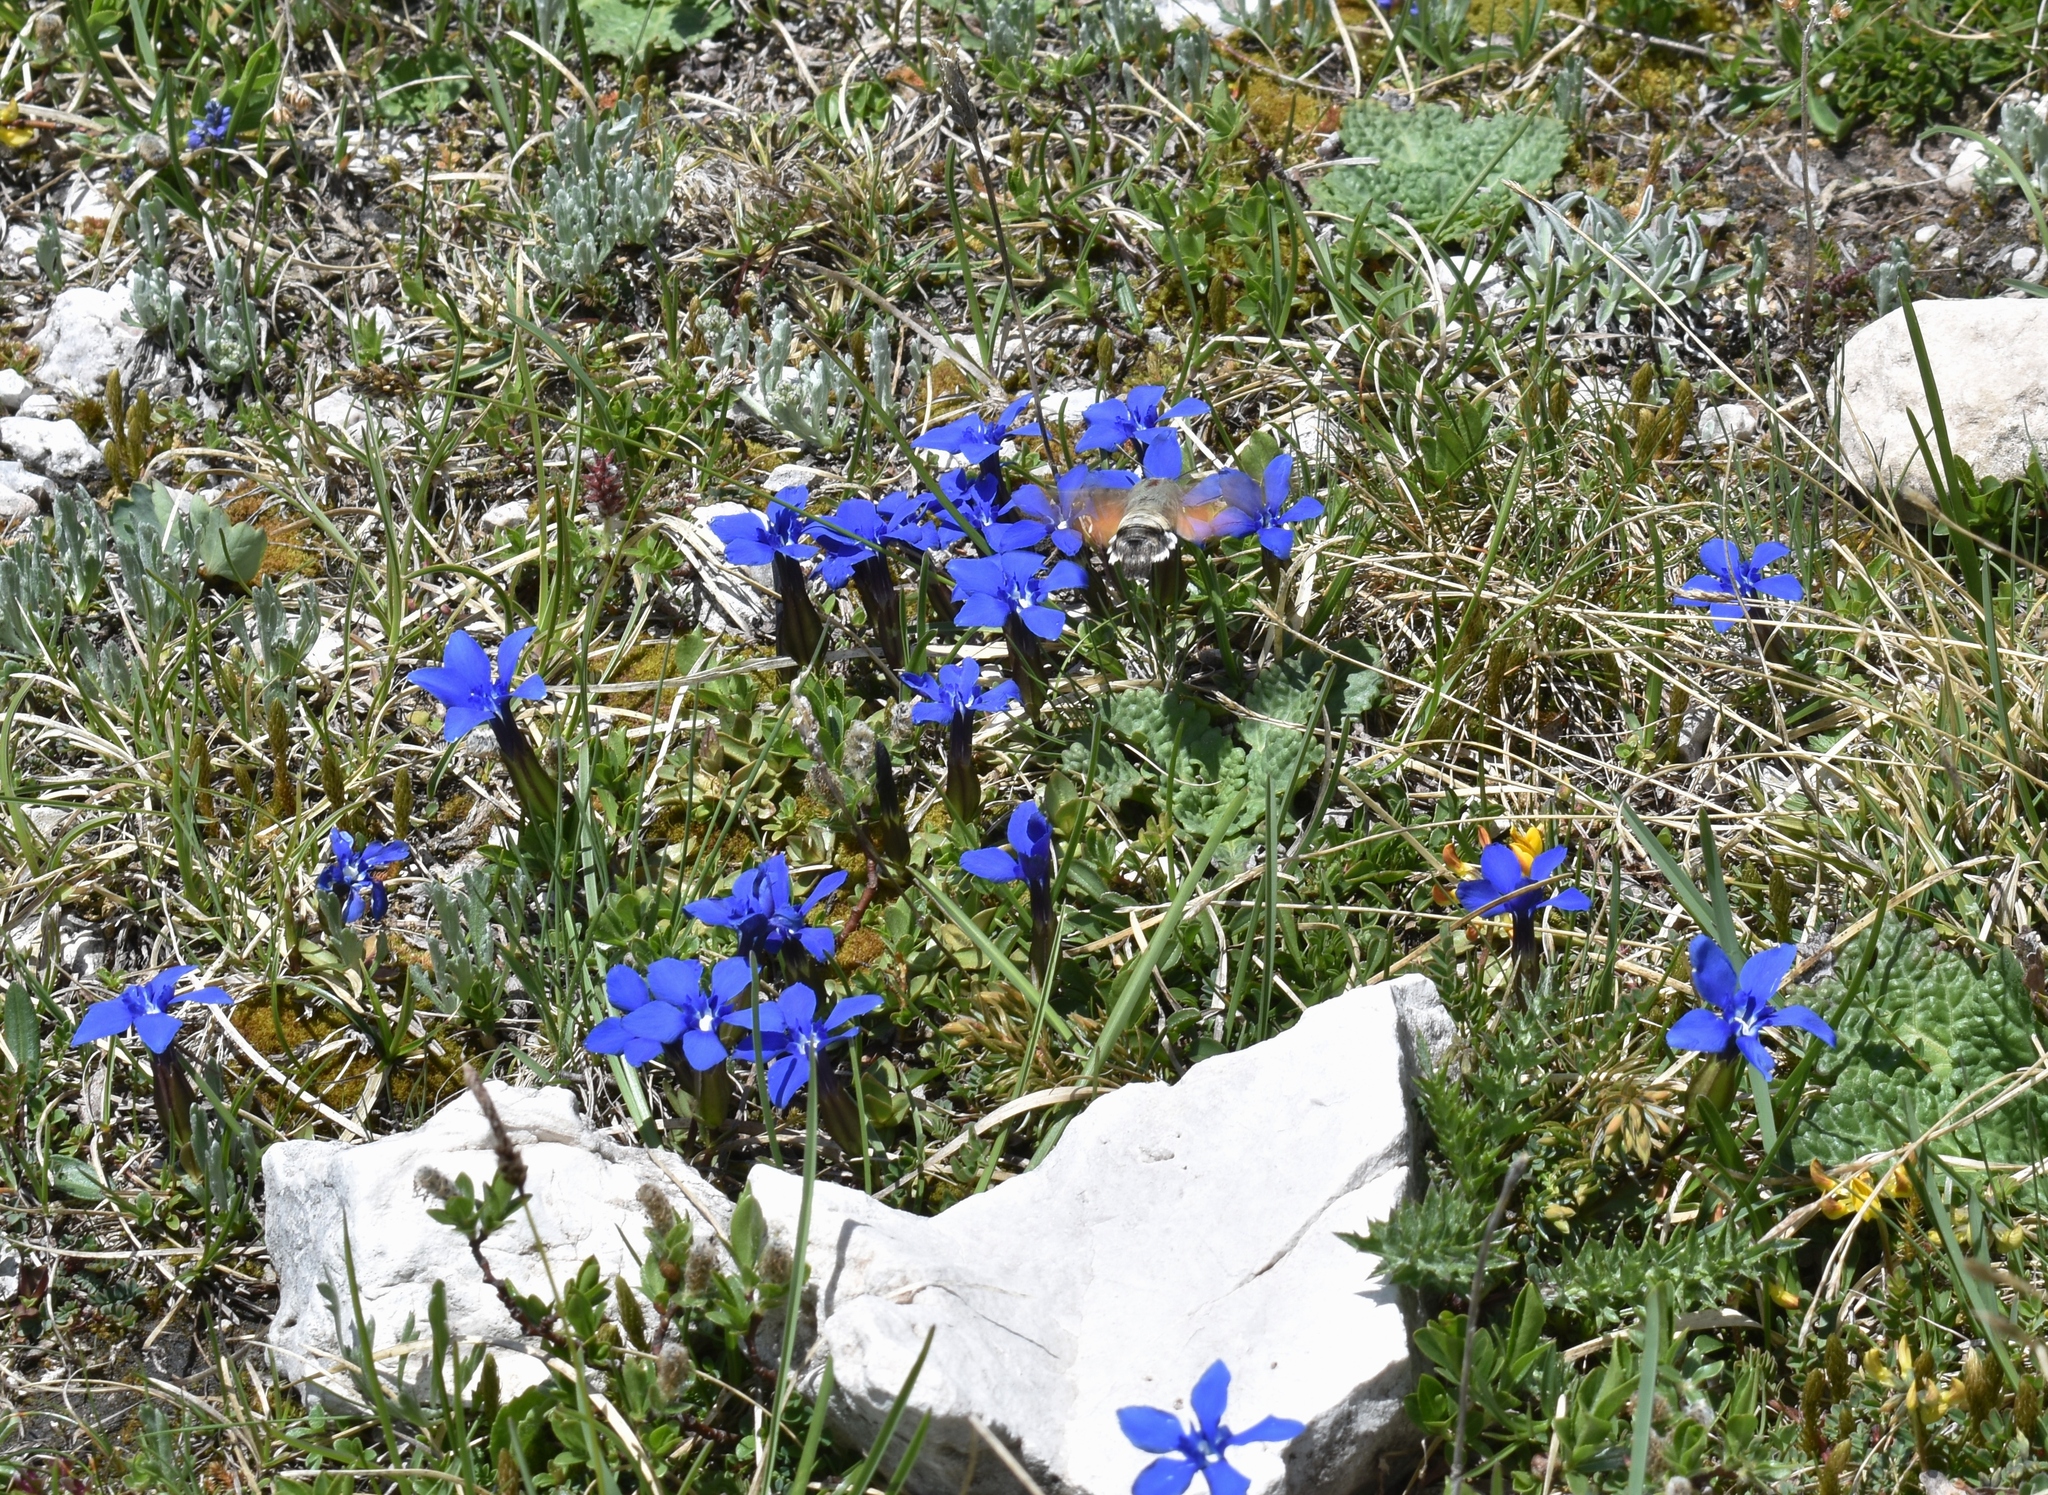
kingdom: Animalia
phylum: Arthropoda
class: Insecta
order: Lepidoptera
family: Sphingidae
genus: Macroglossum
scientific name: Macroglossum stellatarum
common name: Humming-bird hawk-moth
